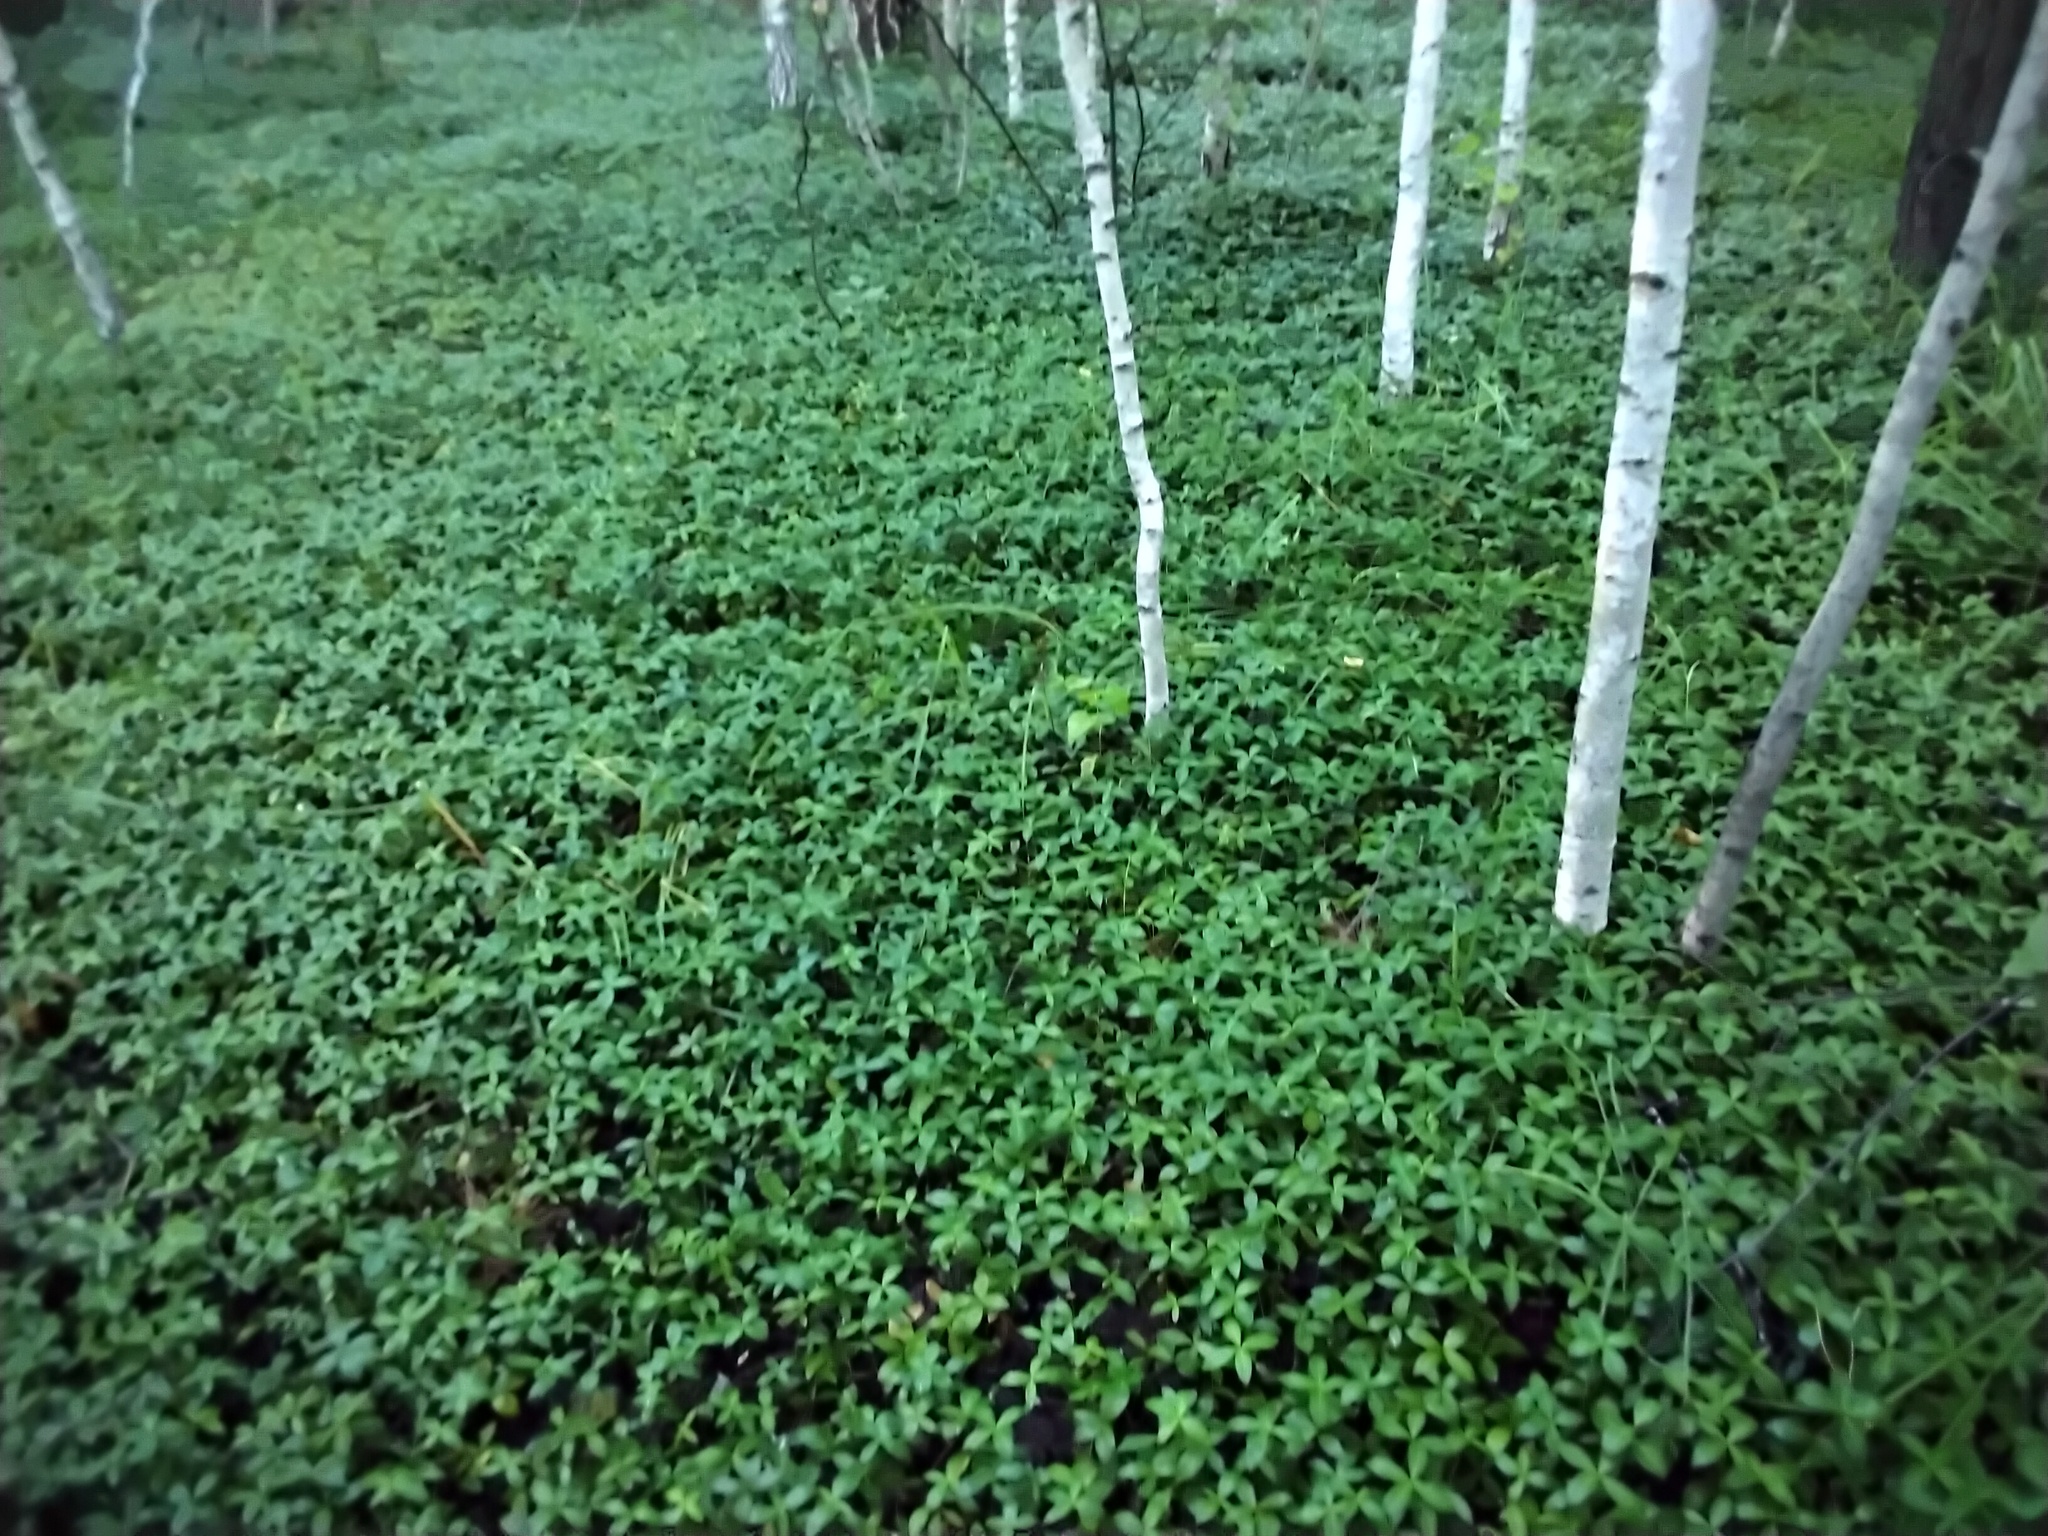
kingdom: Plantae
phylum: Tracheophyta
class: Magnoliopsida
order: Gentianales
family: Apocynaceae
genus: Vinca
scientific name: Vinca minor
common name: Lesser periwinkle
